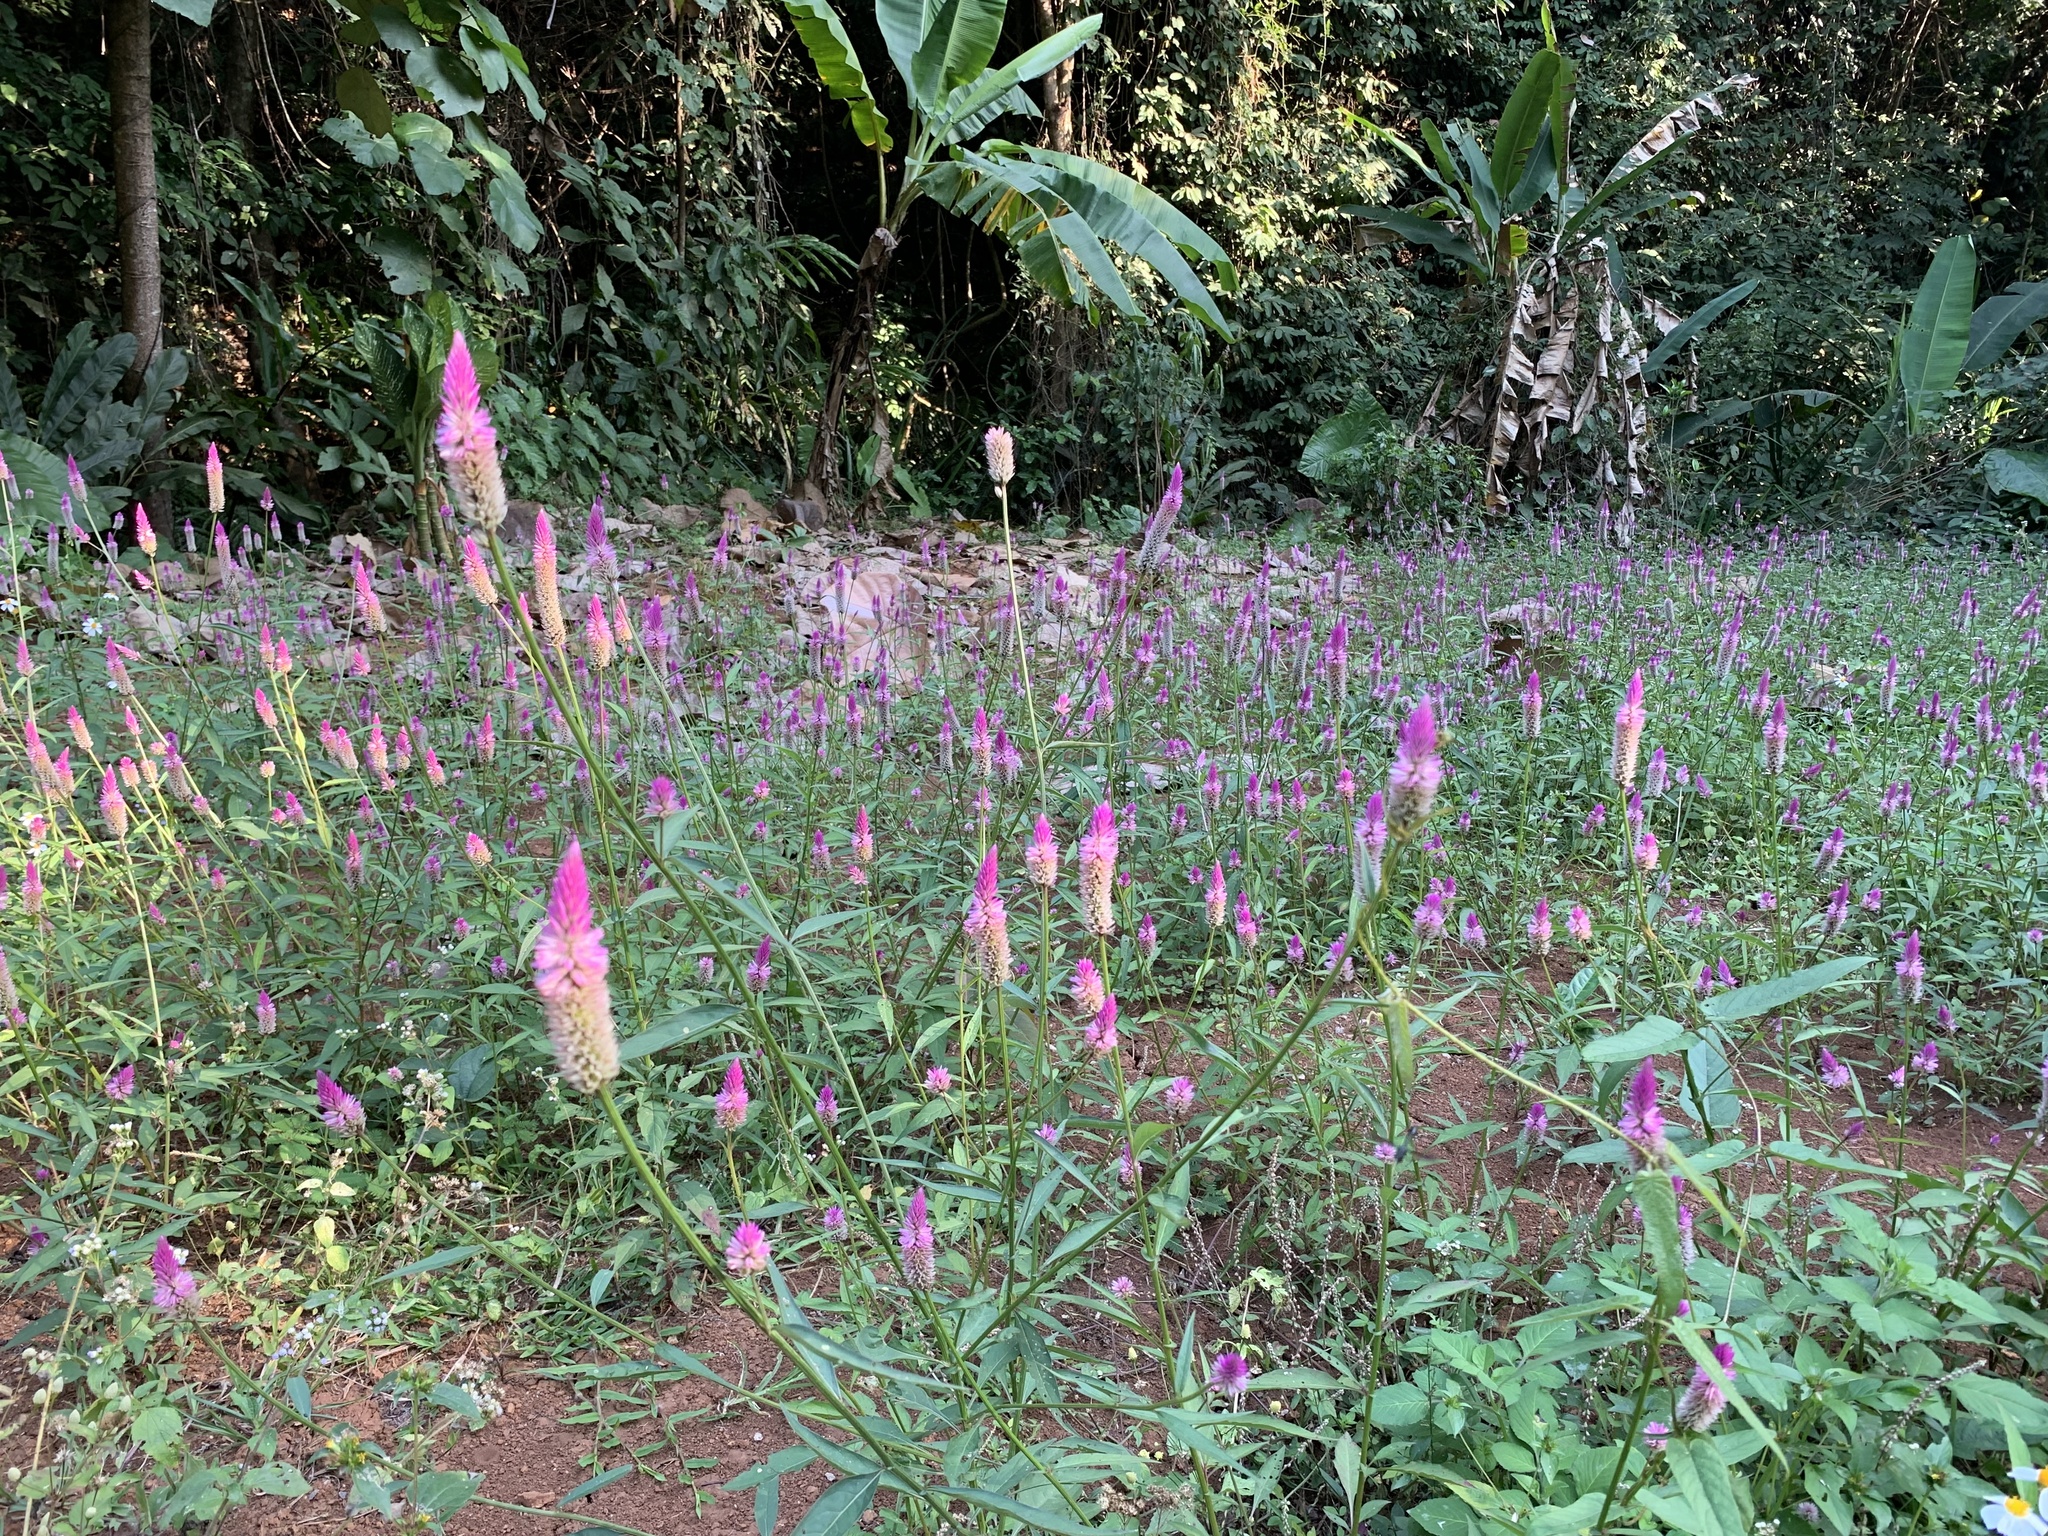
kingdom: Plantae
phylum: Tracheophyta
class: Magnoliopsida
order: Caryophyllales
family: Amaranthaceae
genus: Celosia
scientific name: Celosia argentea
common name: Feather cockscomb
